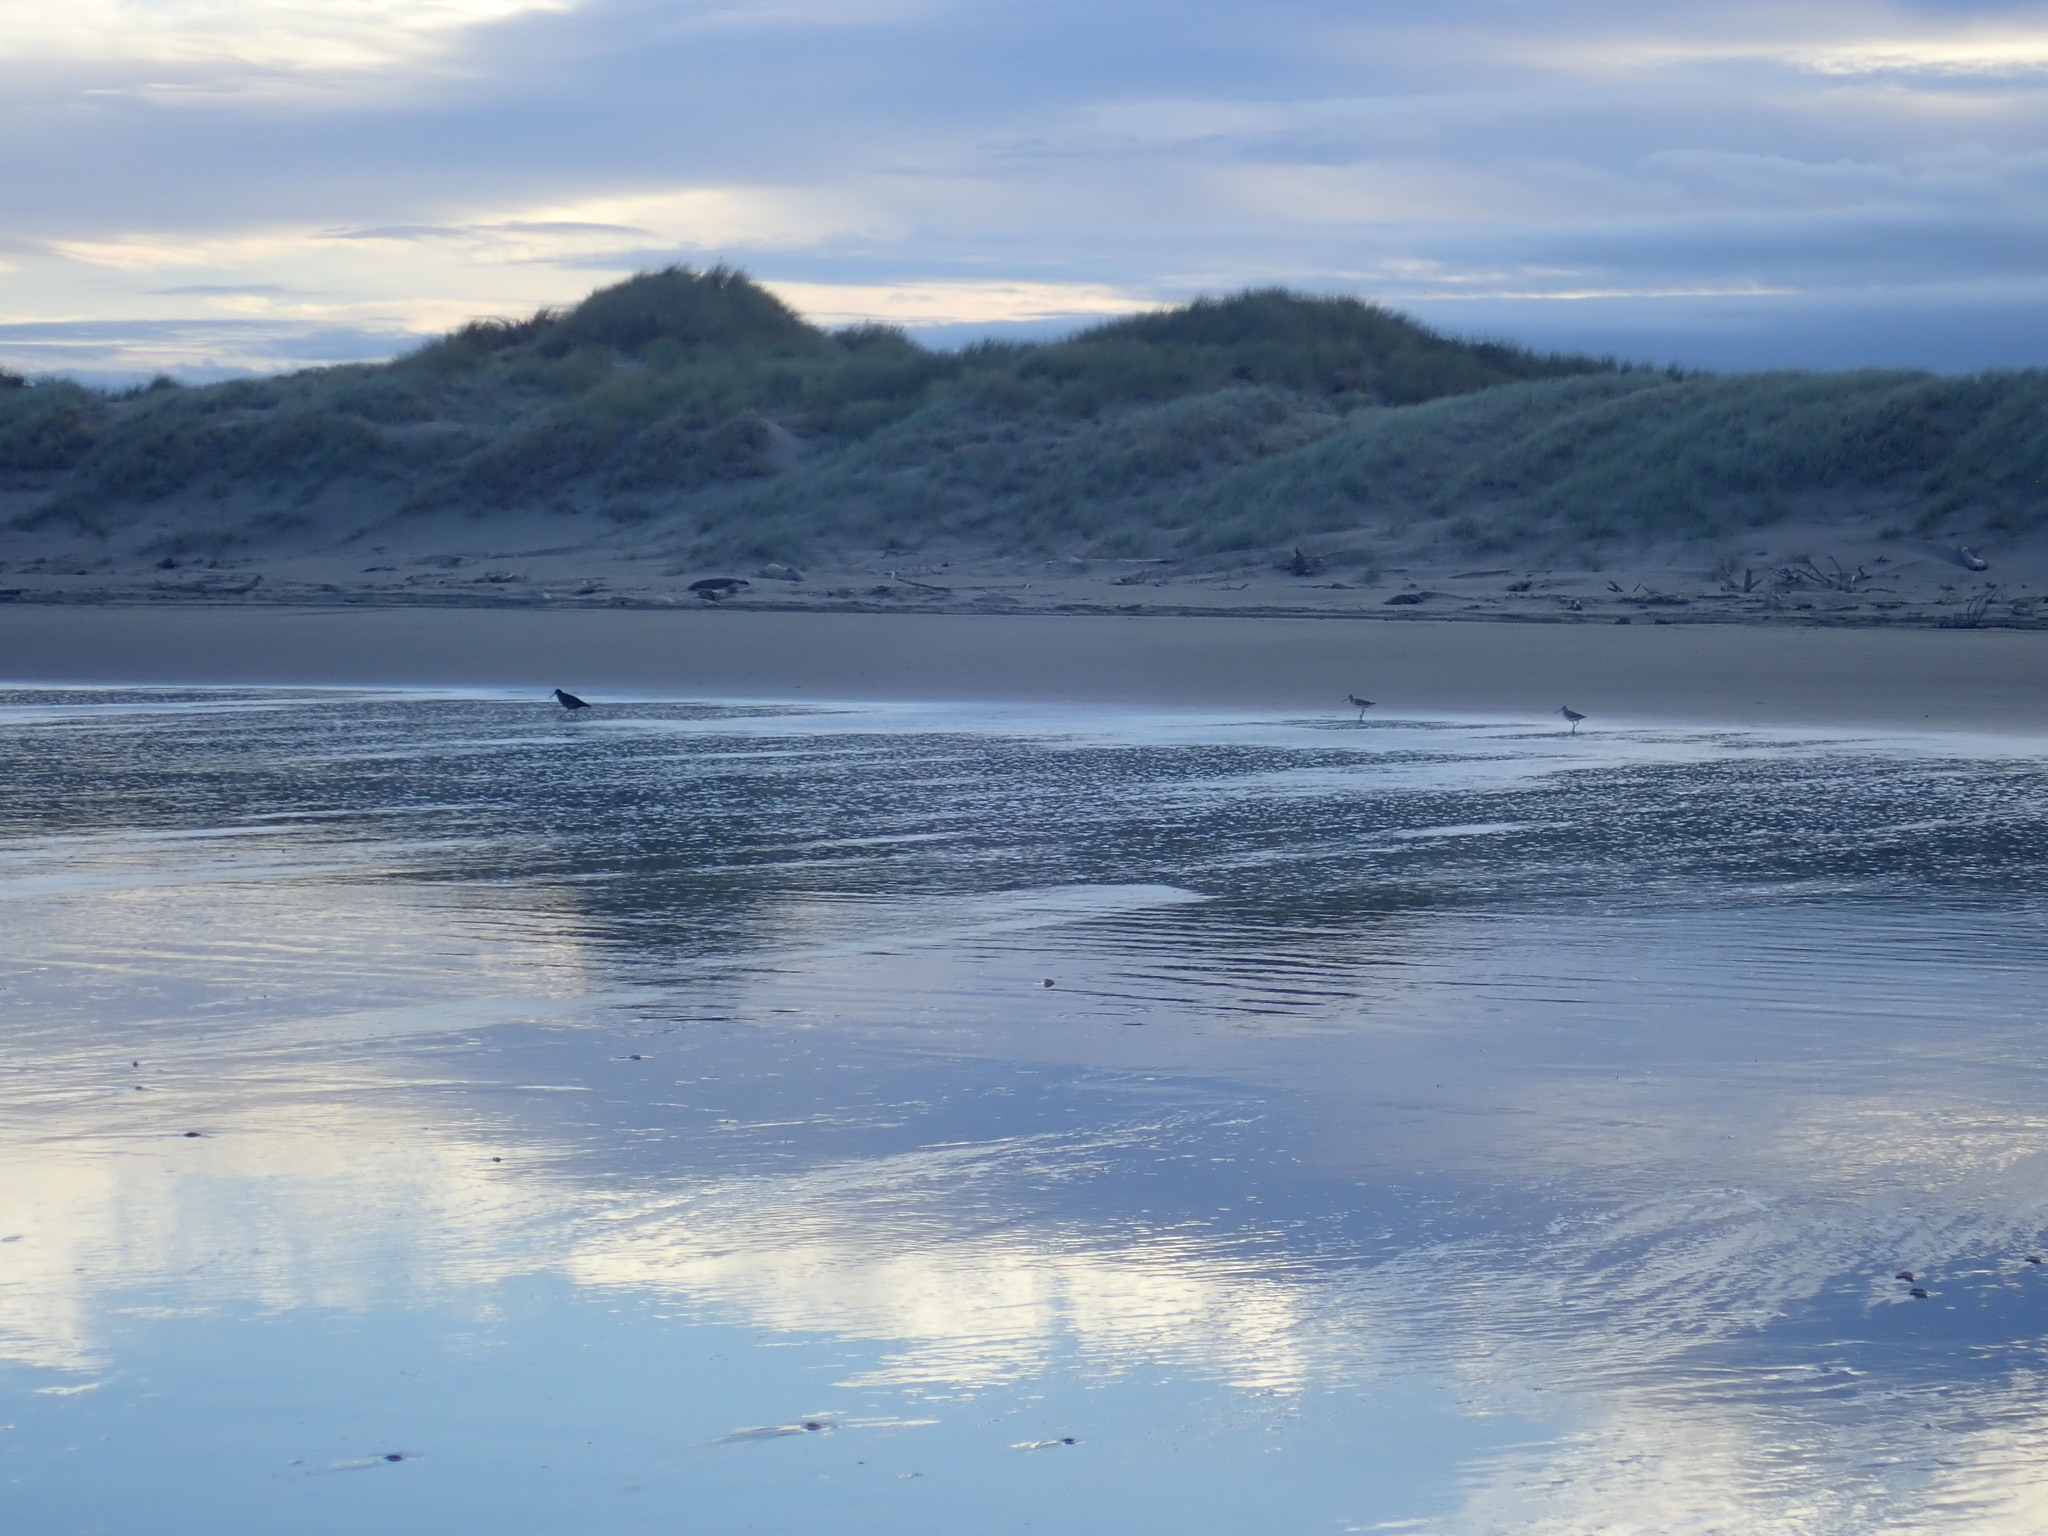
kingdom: Animalia
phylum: Chordata
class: Aves
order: Charadriiformes
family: Haematopodidae
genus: Haematopus
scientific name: Haematopus unicolor
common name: Variable oystercatcher
